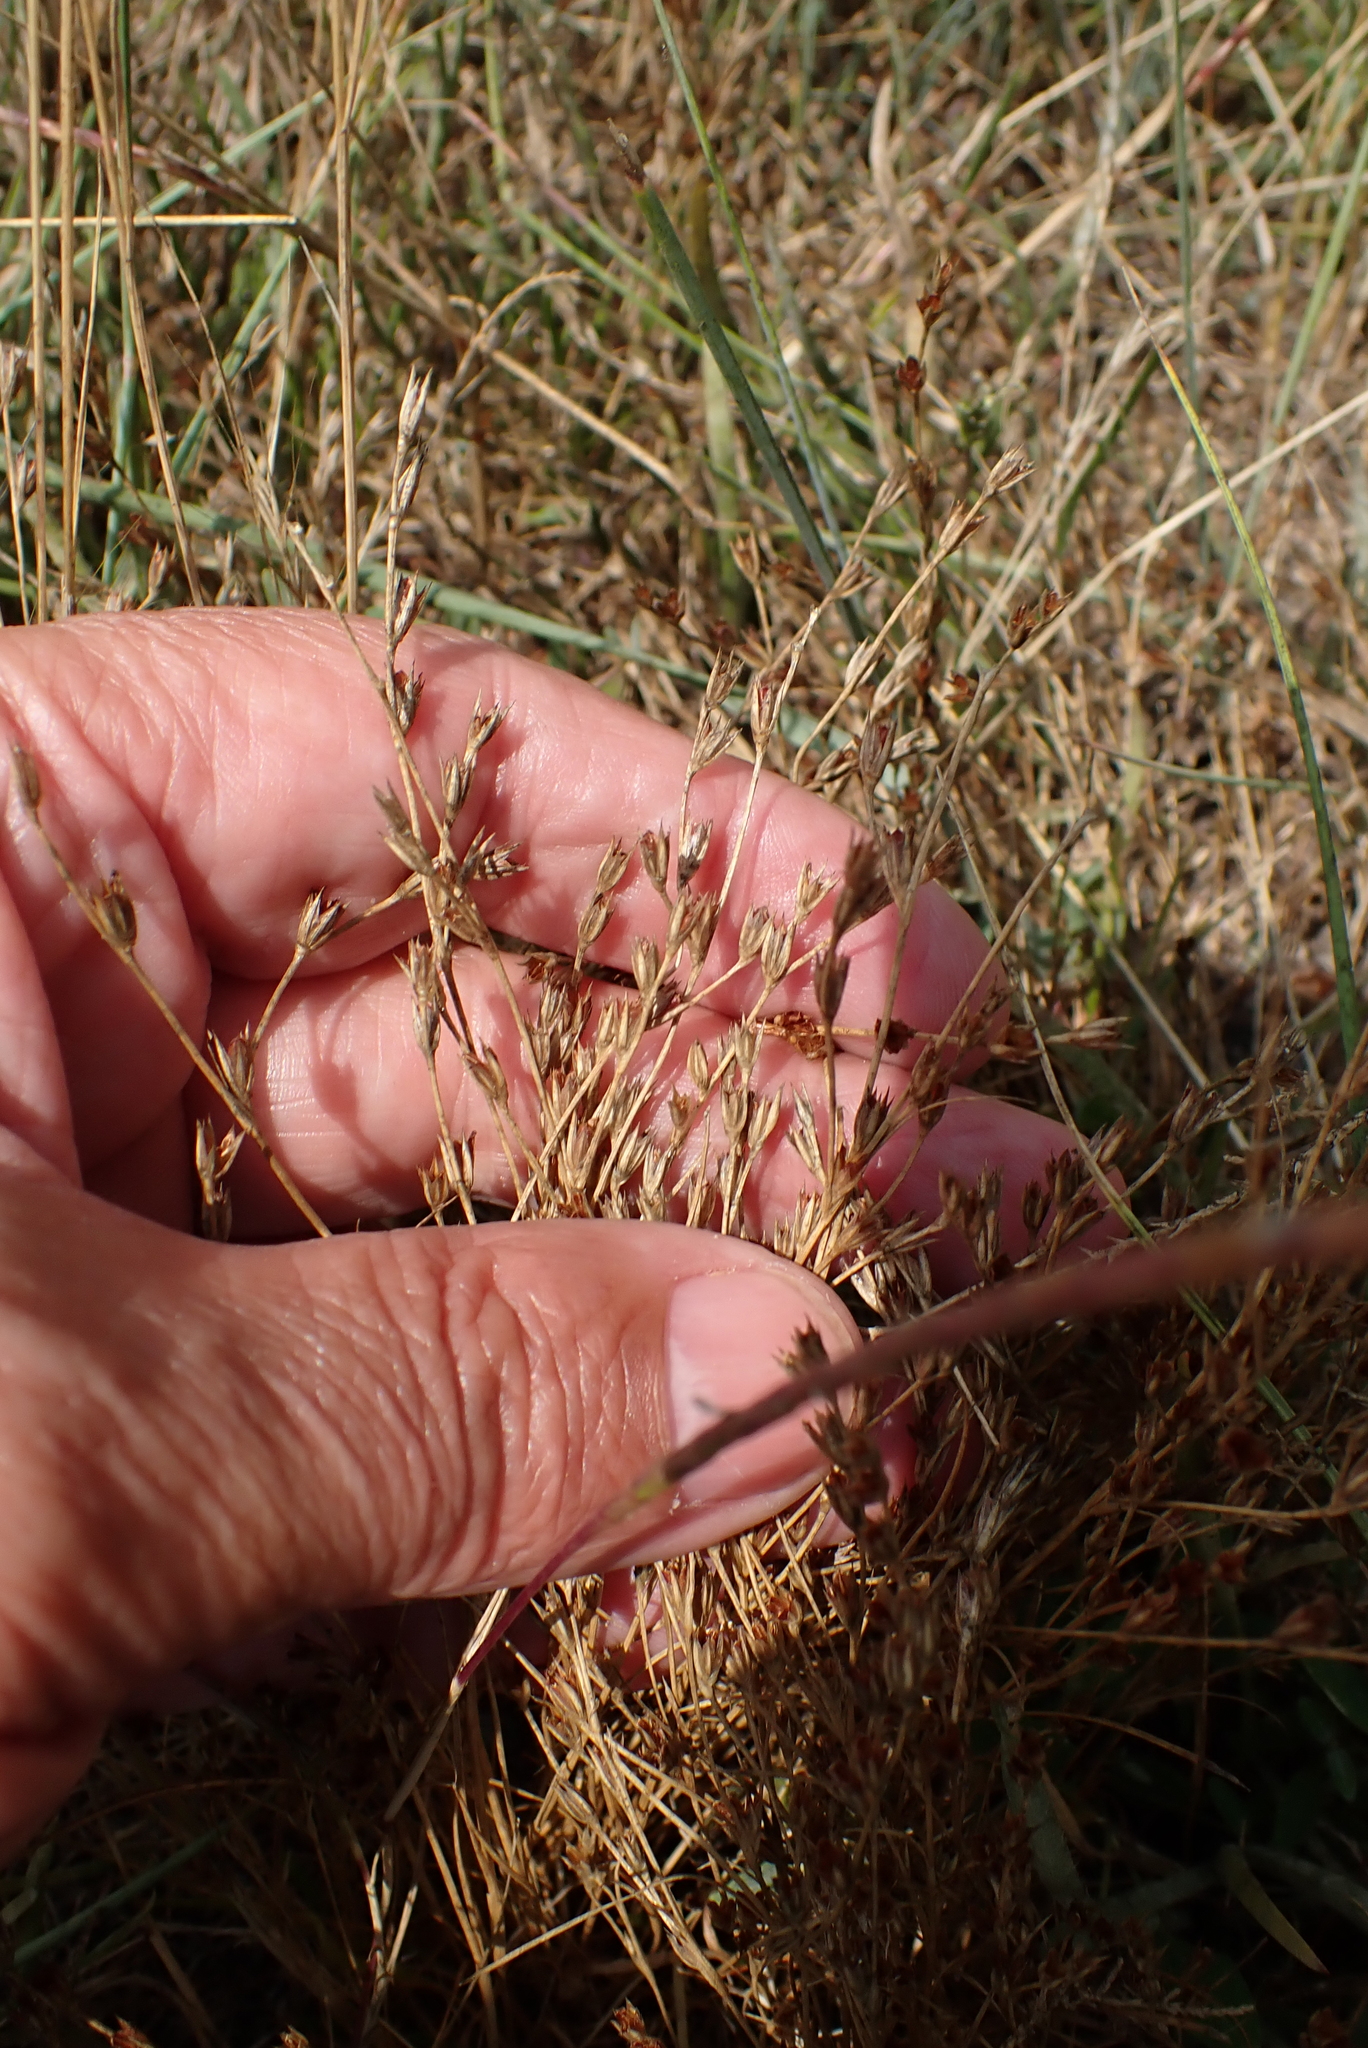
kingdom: Plantae
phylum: Tracheophyta
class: Liliopsida
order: Poales
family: Juncaceae
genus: Juncus
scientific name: Juncus bufonius
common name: Toad rush
